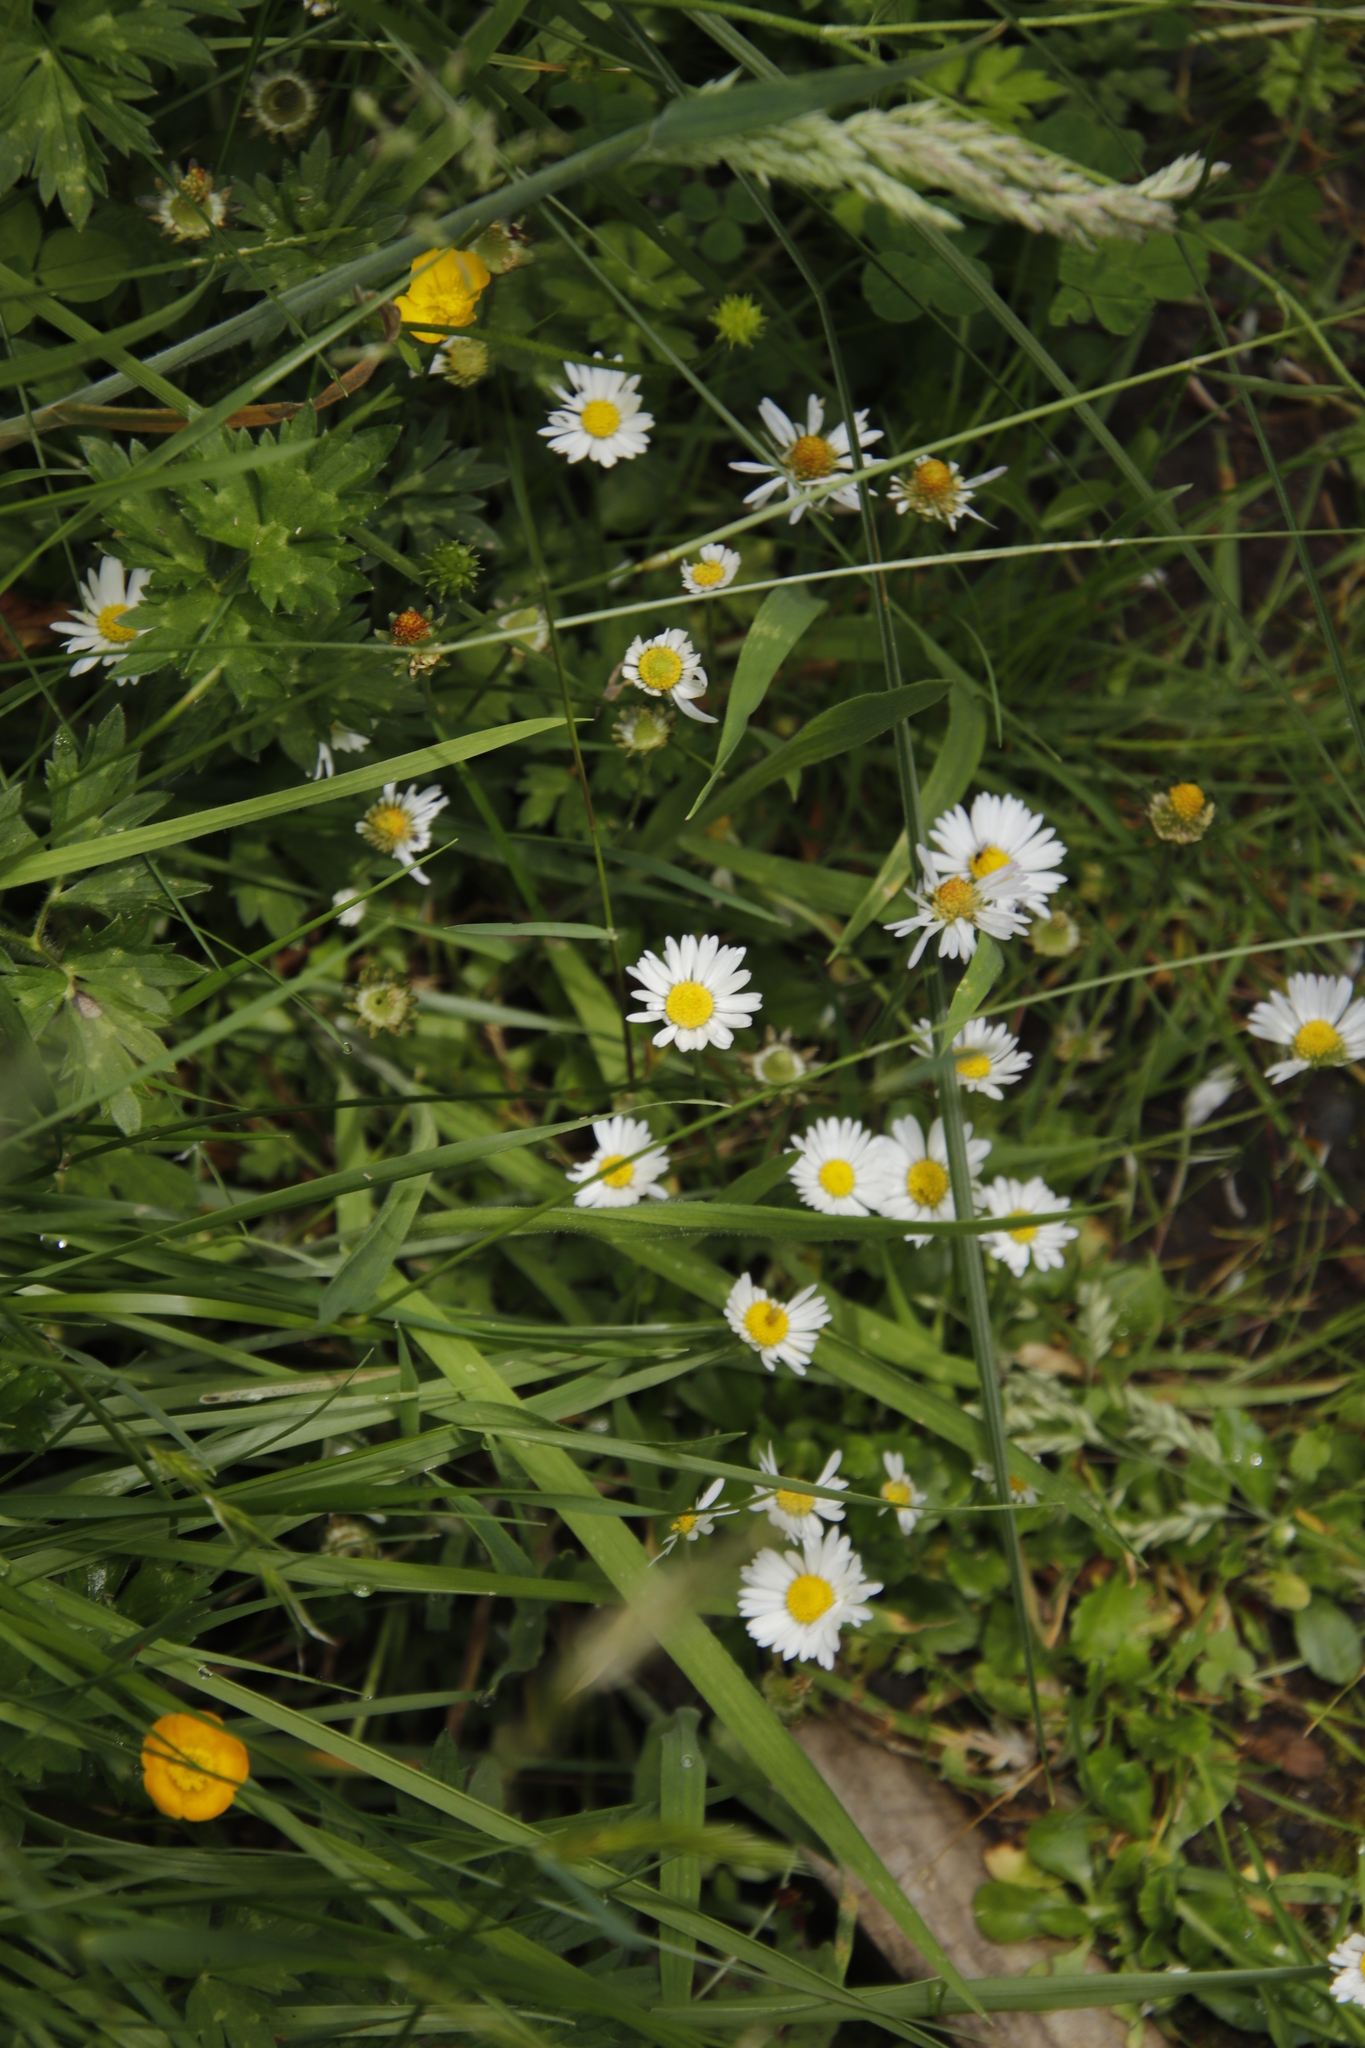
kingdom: Plantae
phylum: Tracheophyta
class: Magnoliopsida
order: Asterales
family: Asteraceae
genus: Bellis
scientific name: Bellis perennis
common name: Lawndaisy
